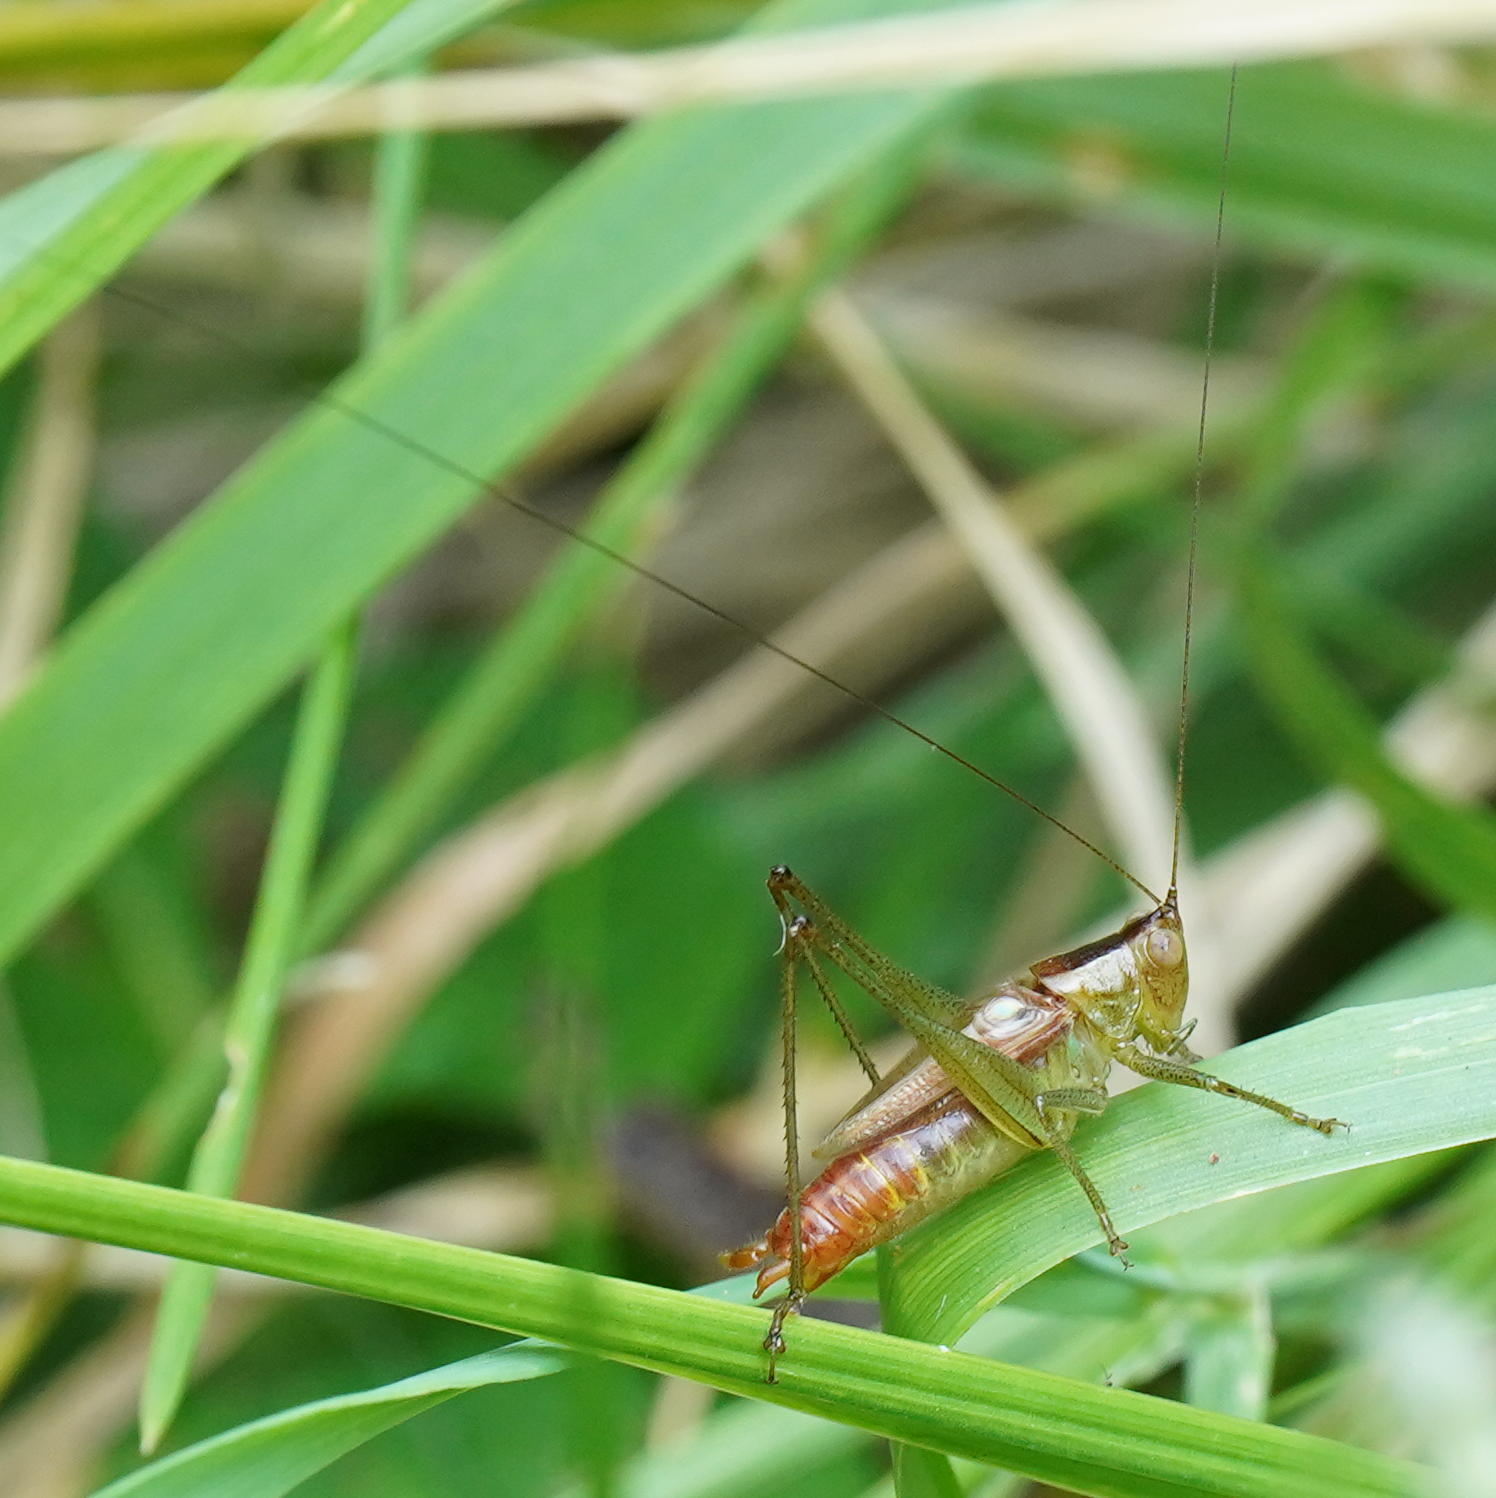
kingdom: Animalia
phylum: Arthropoda
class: Insecta
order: Orthoptera
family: Tettigoniidae
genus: Conocephalus
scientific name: Conocephalus brevipennis
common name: Short-winged meadow katydid
